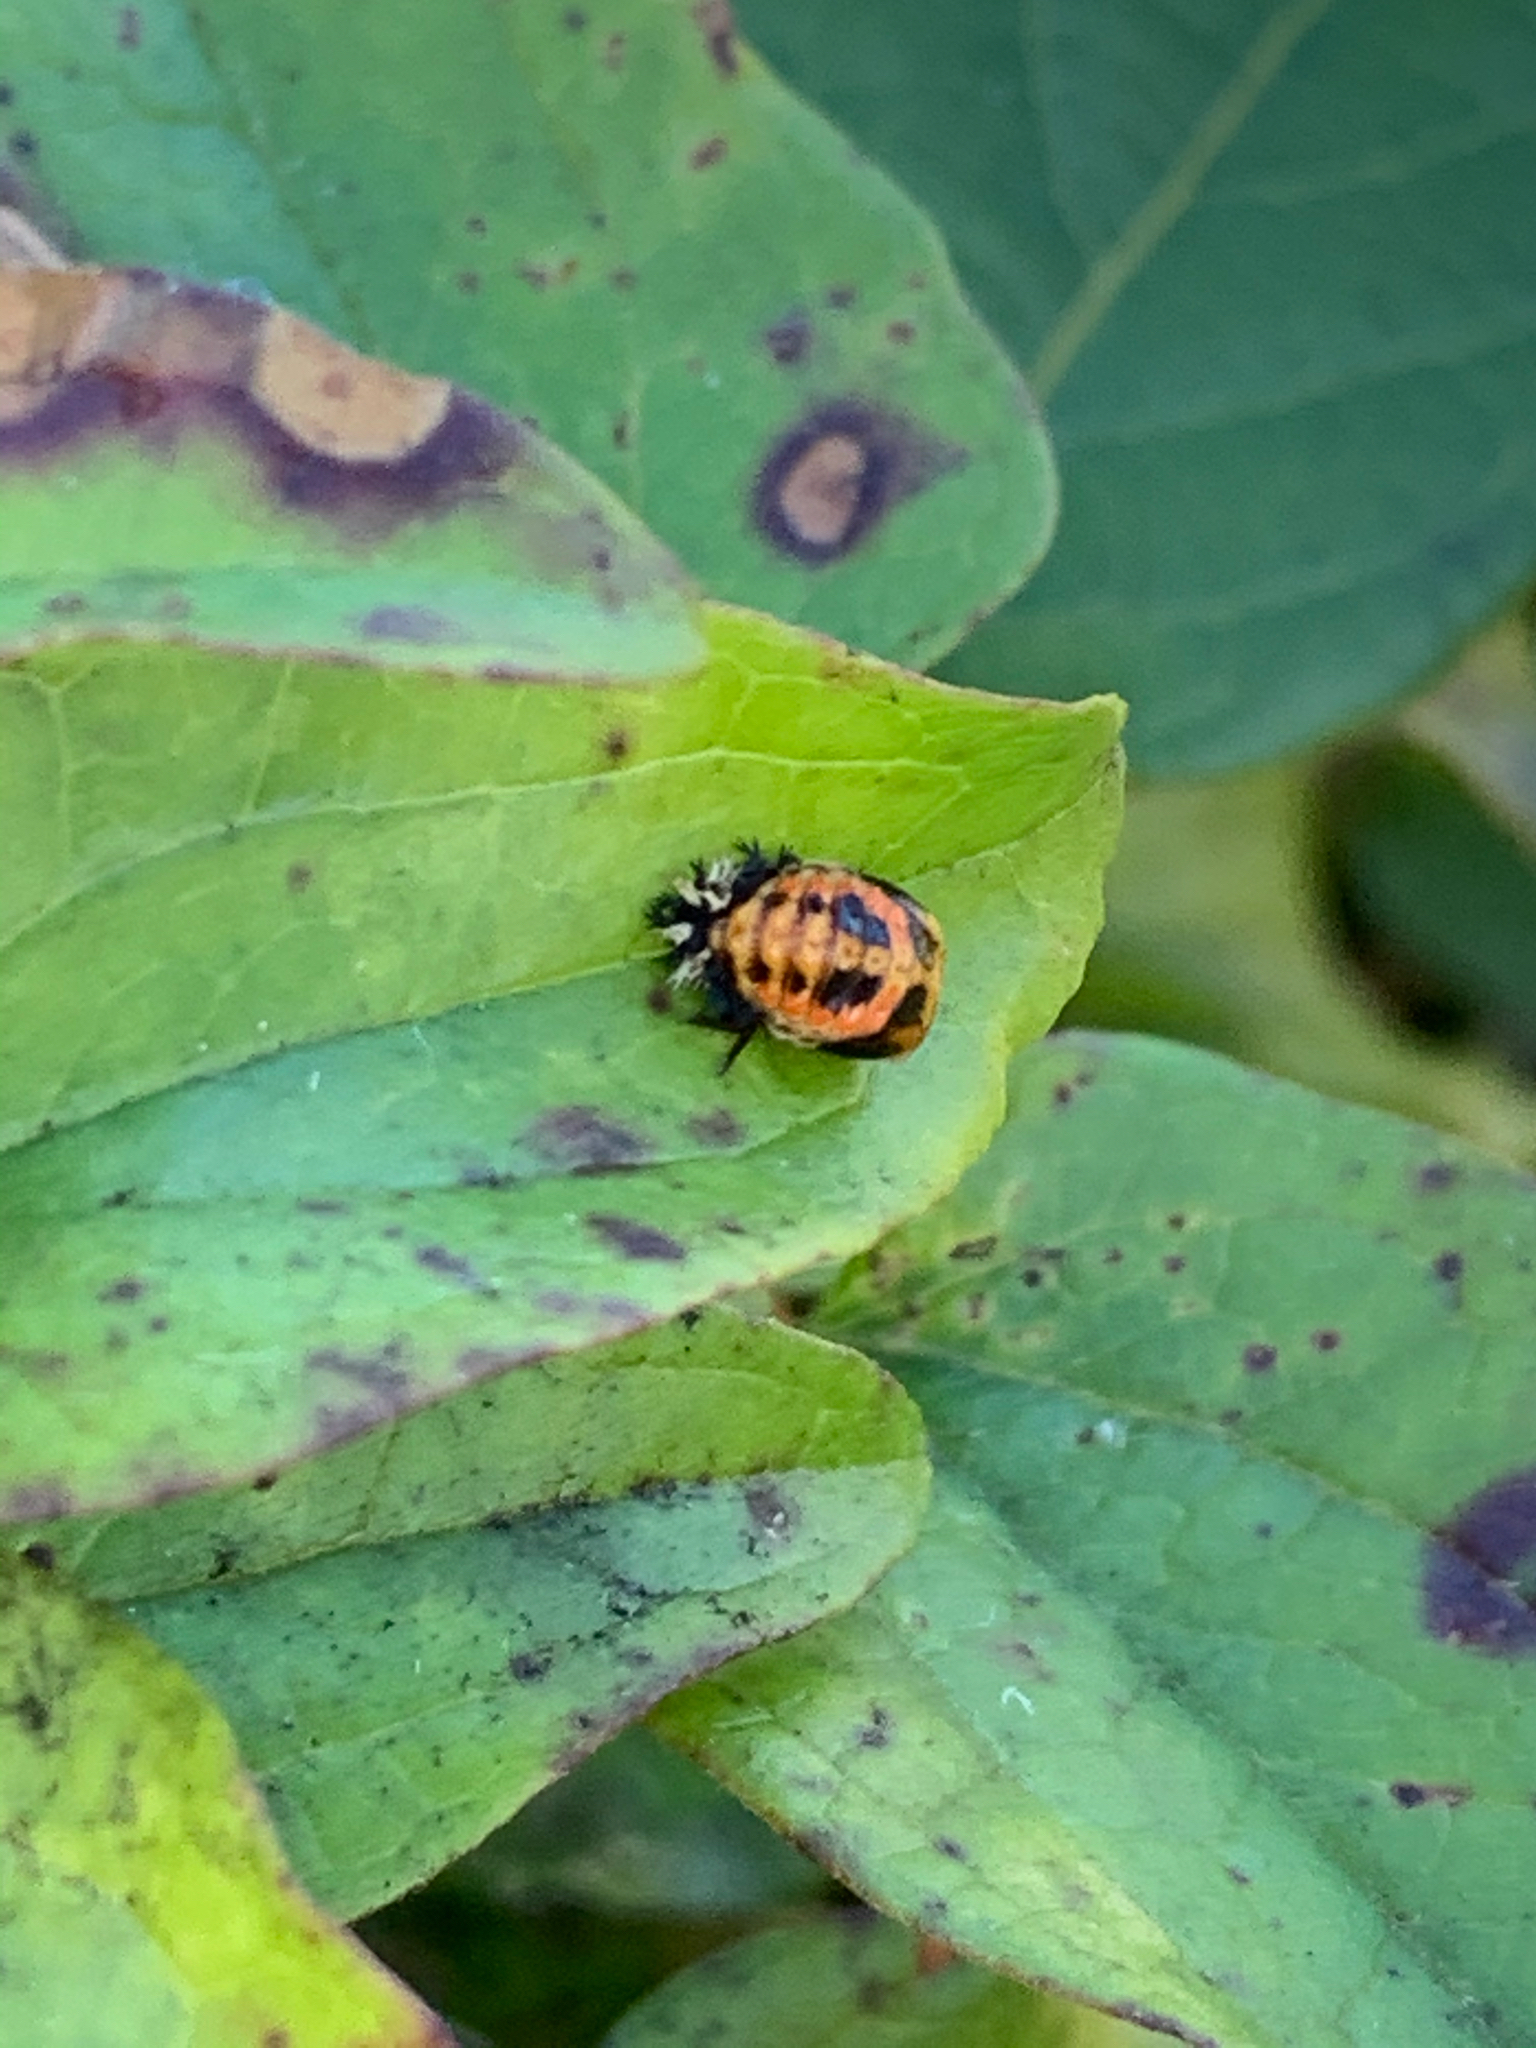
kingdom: Animalia
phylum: Arthropoda
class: Insecta
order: Coleoptera
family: Coccinellidae
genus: Harmonia
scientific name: Harmonia axyridis
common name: Harlequin ladybird
